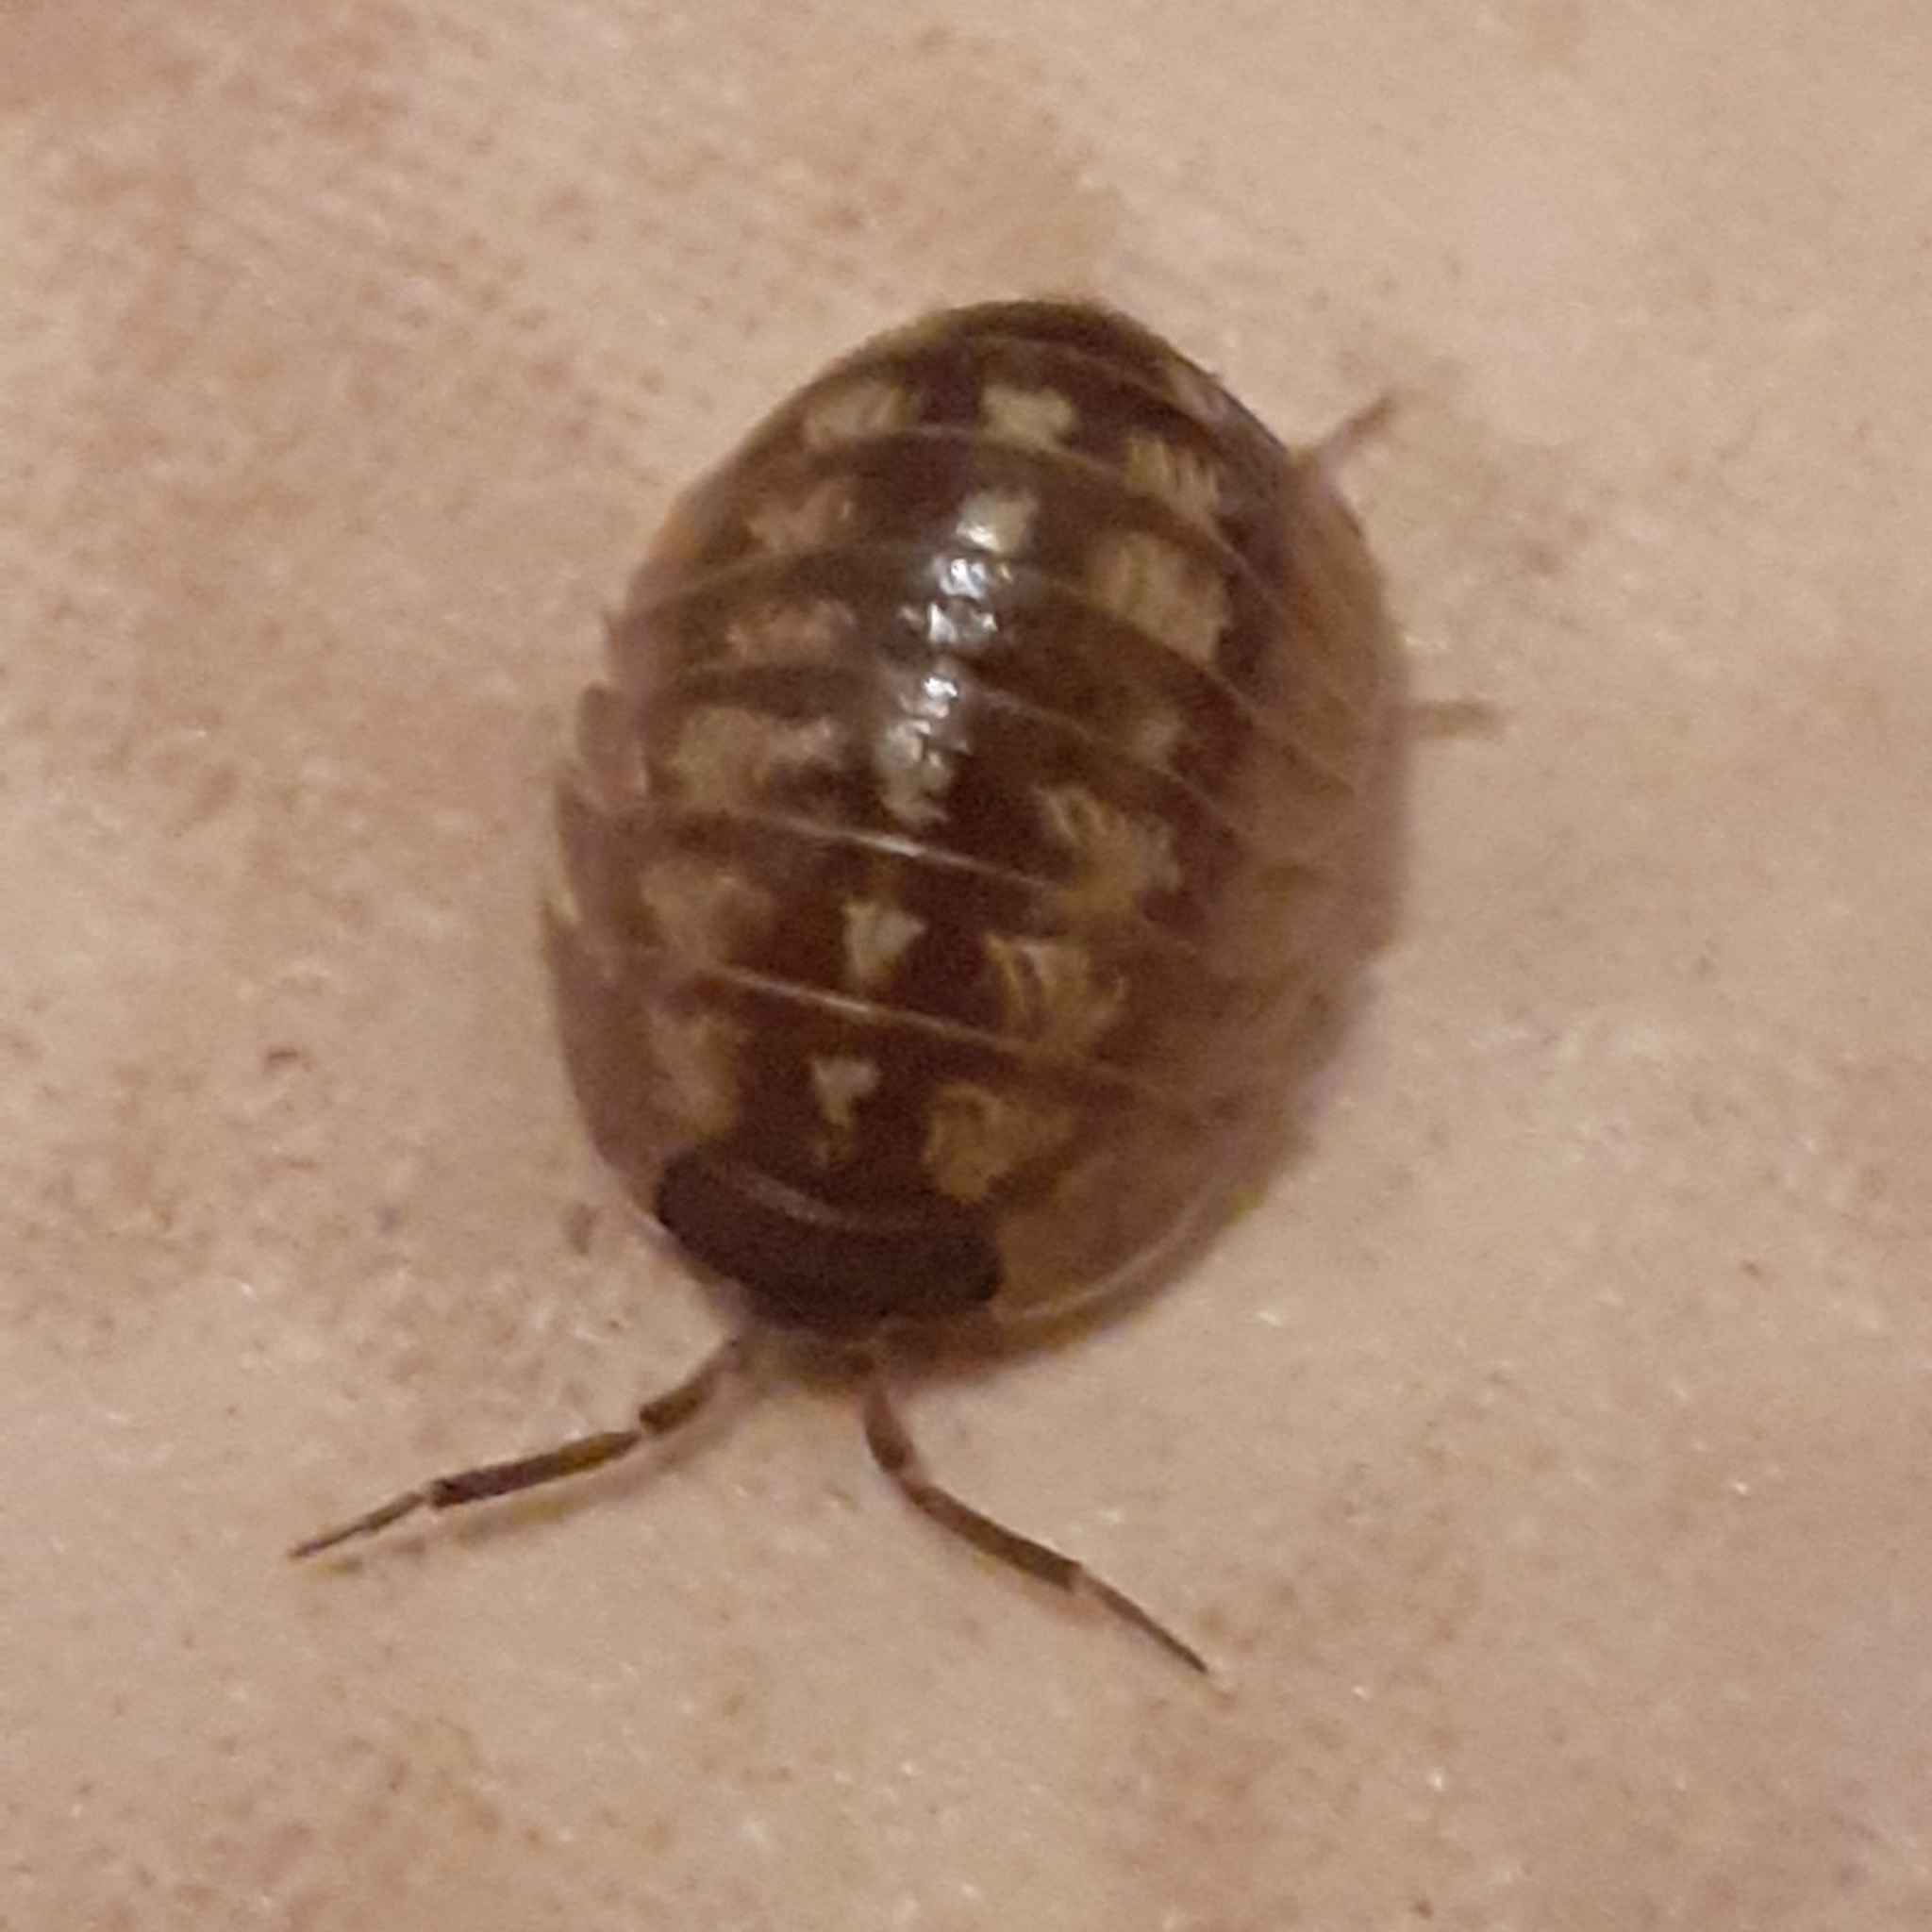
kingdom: Animalia
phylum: Arthropoda
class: Malacostraca
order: Isopoda
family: Armadillidiidae
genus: Armadillidium
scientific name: Armadillidium depressum
